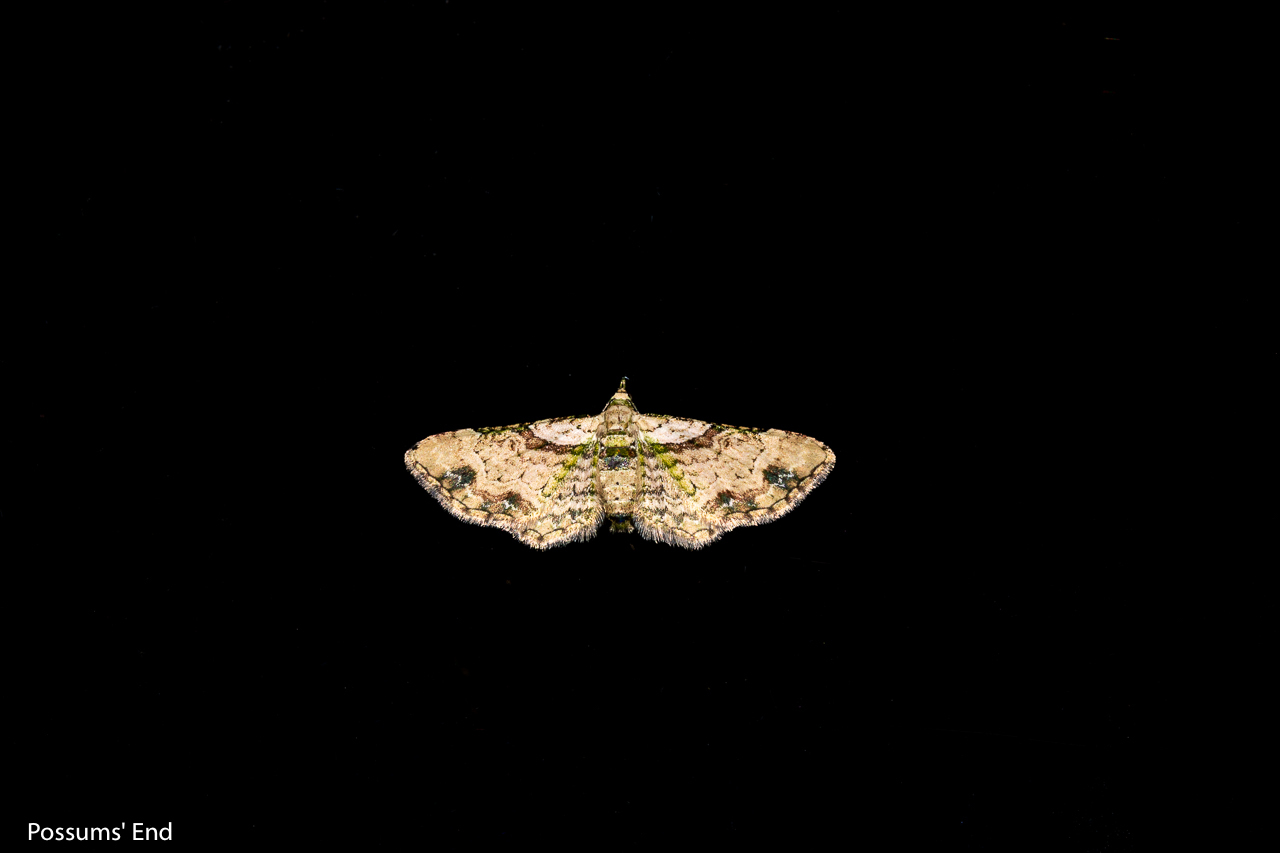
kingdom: Animalia
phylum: Arthropoda
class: Insecta
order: Lepidoptera
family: Geometridae
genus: Chloroclystis
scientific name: Chloroclystis
